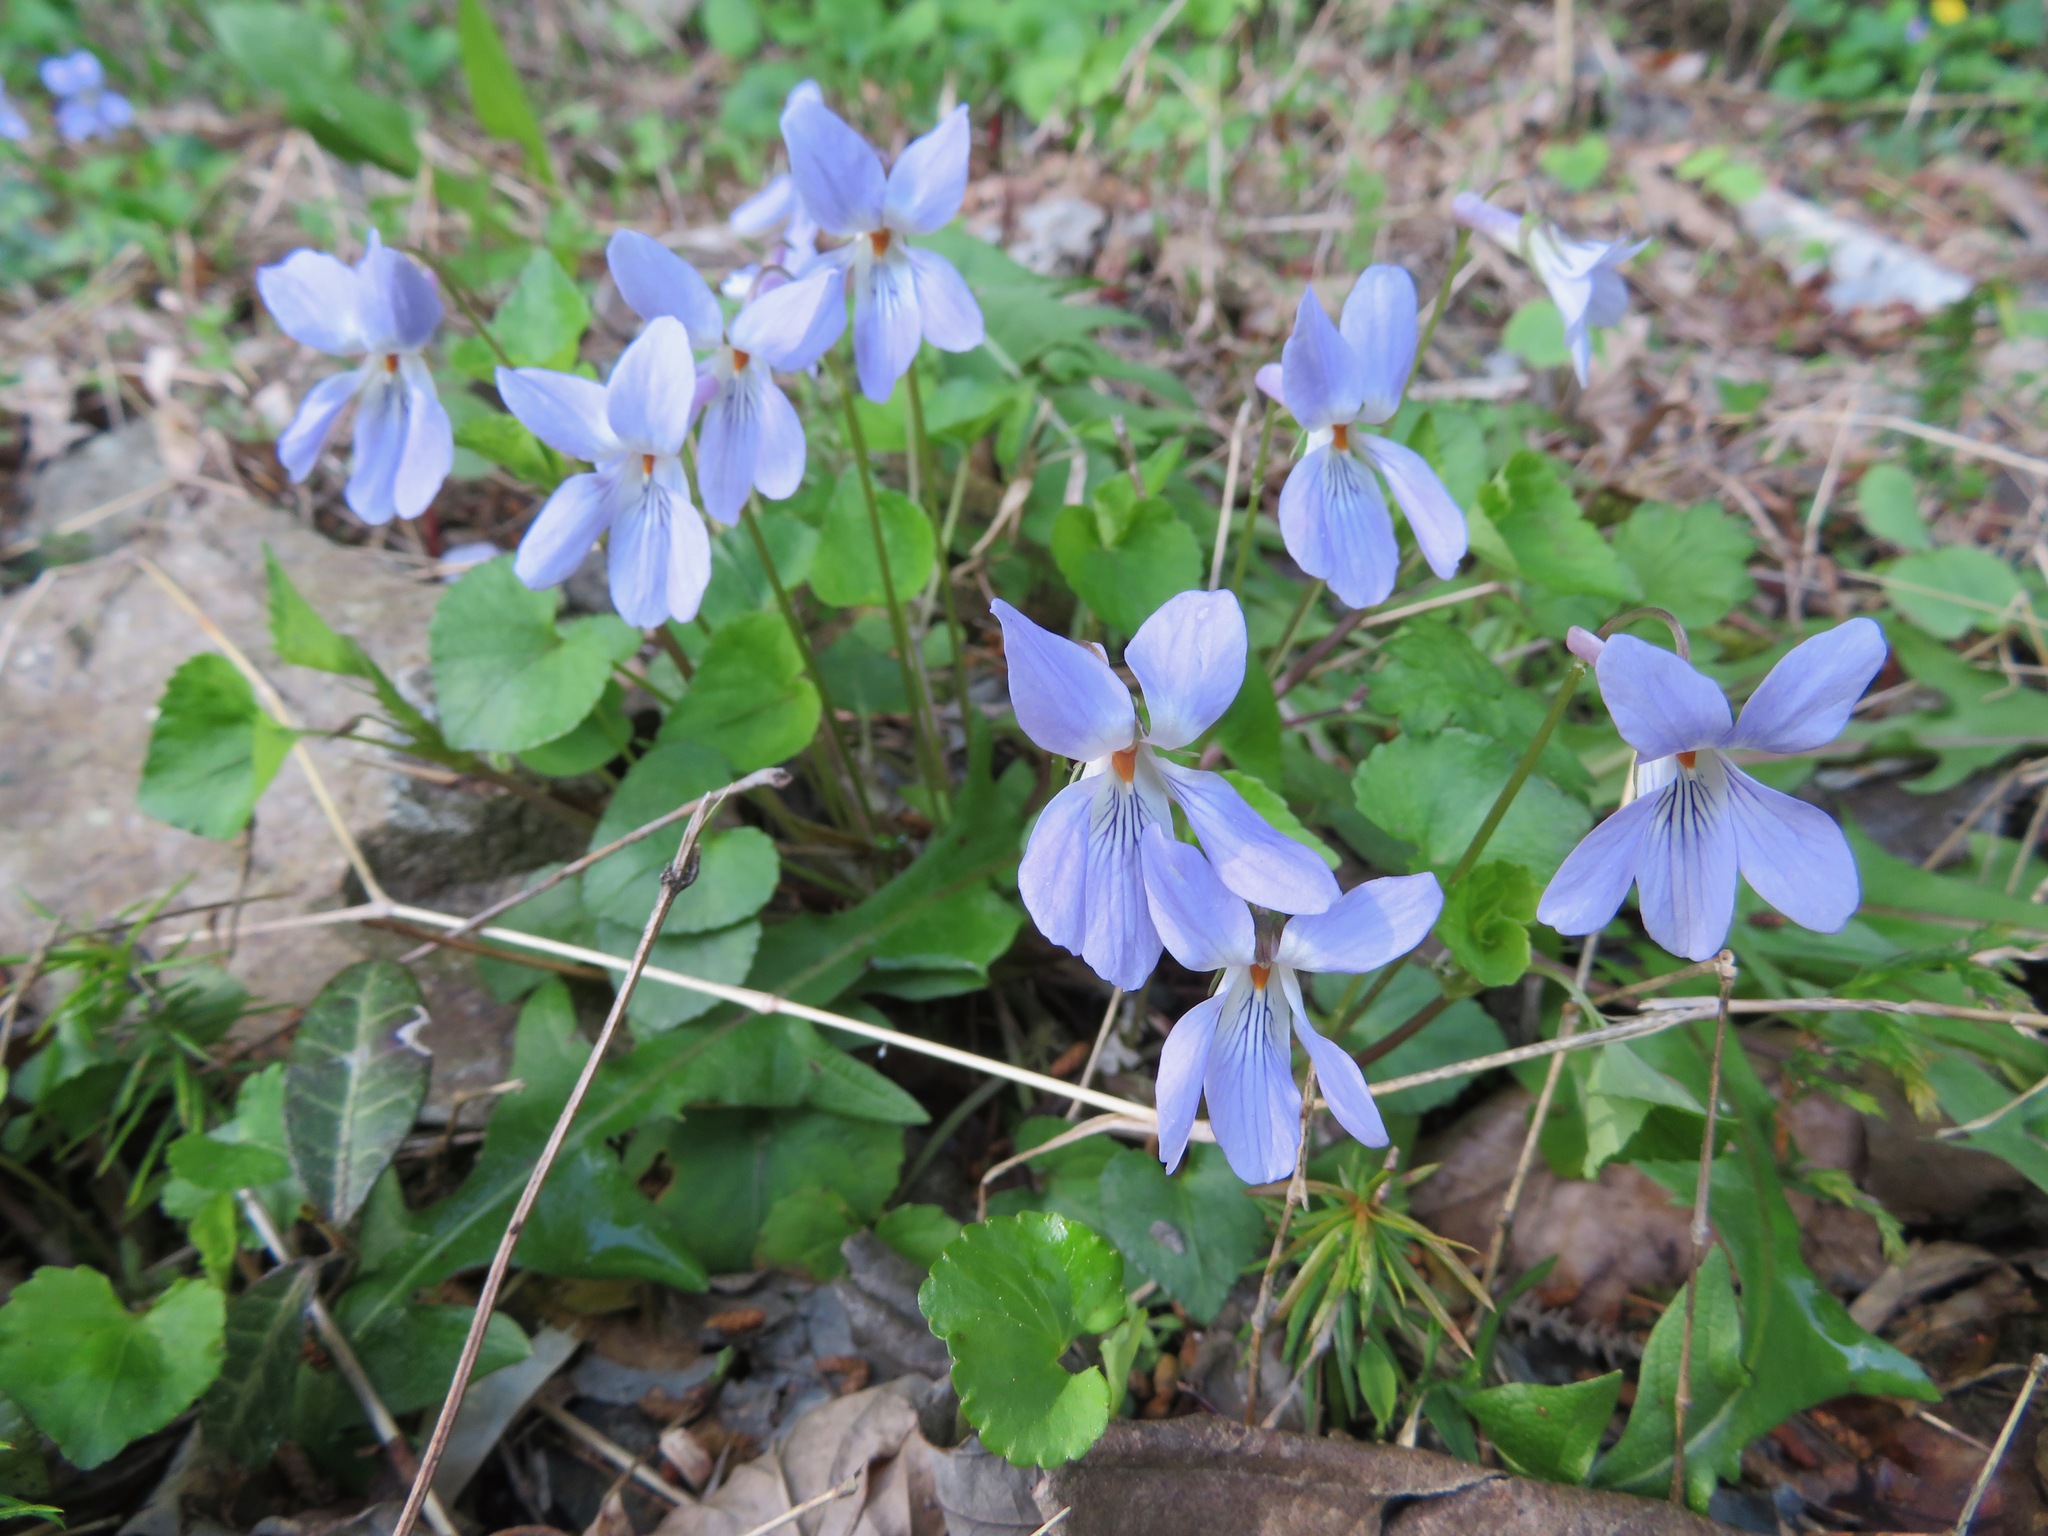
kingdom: Plantae
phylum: Tracheophyta
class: Magnoliopsida
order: Malpighiales
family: Violaceae
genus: Viola
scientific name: Viola grypoceras
